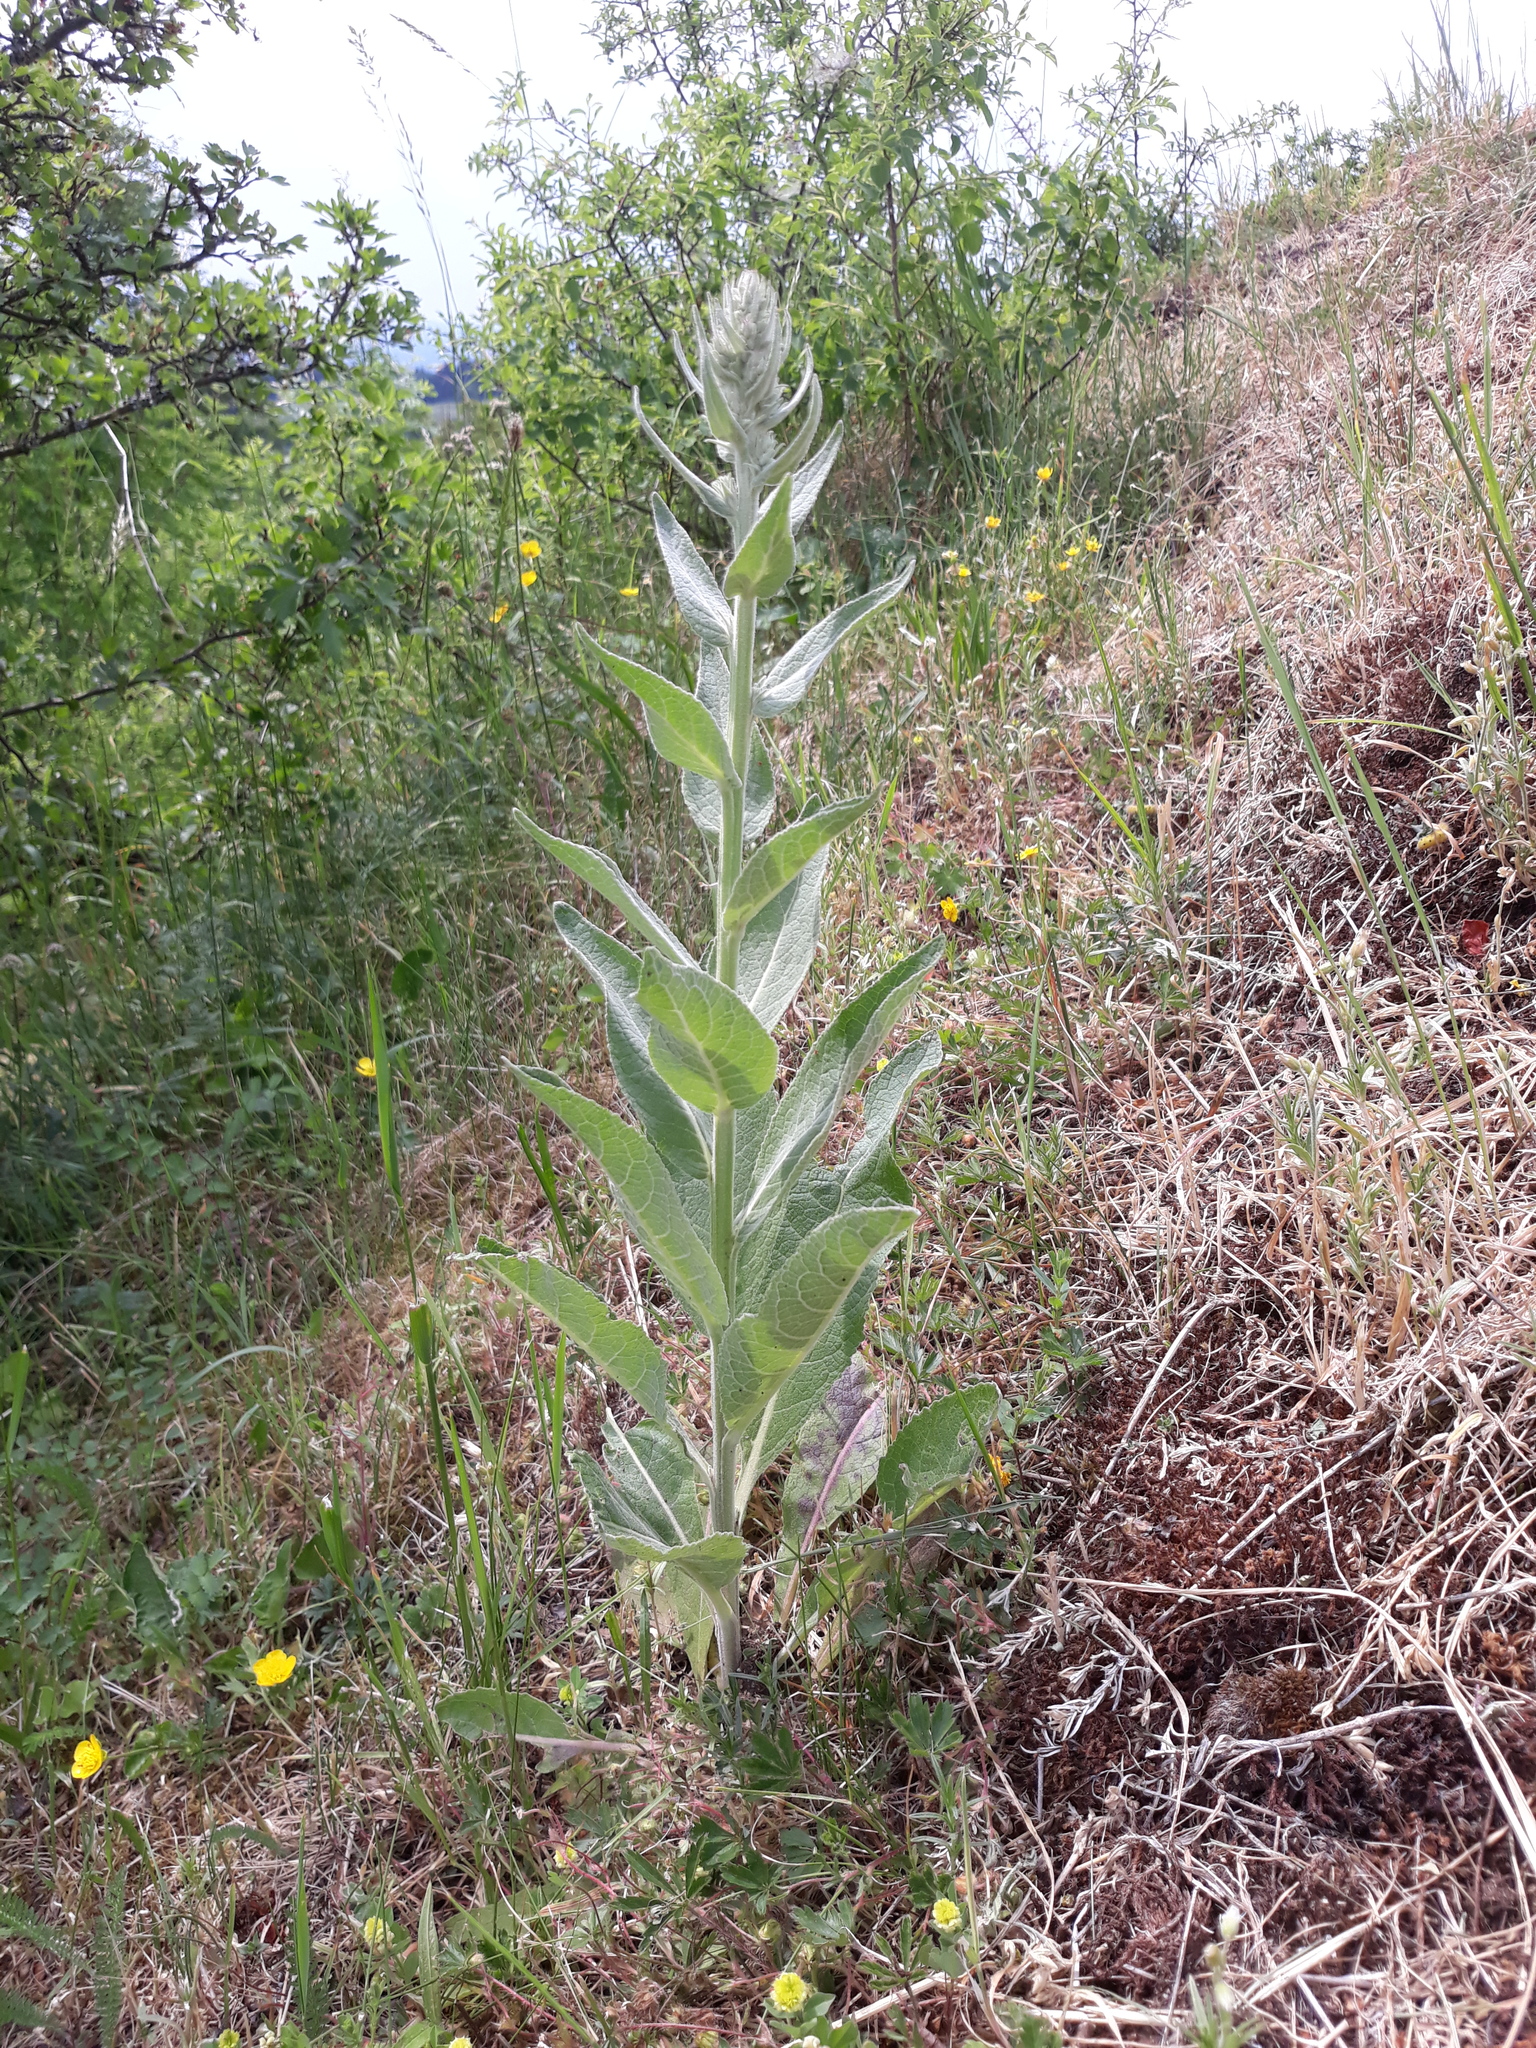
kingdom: Plantae
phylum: Tracheophyta
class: Magnoliopsida
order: Lamiales
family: Scrophulariaceae
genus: Verbascum
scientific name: Verbascum lychnitis
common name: White mullein
